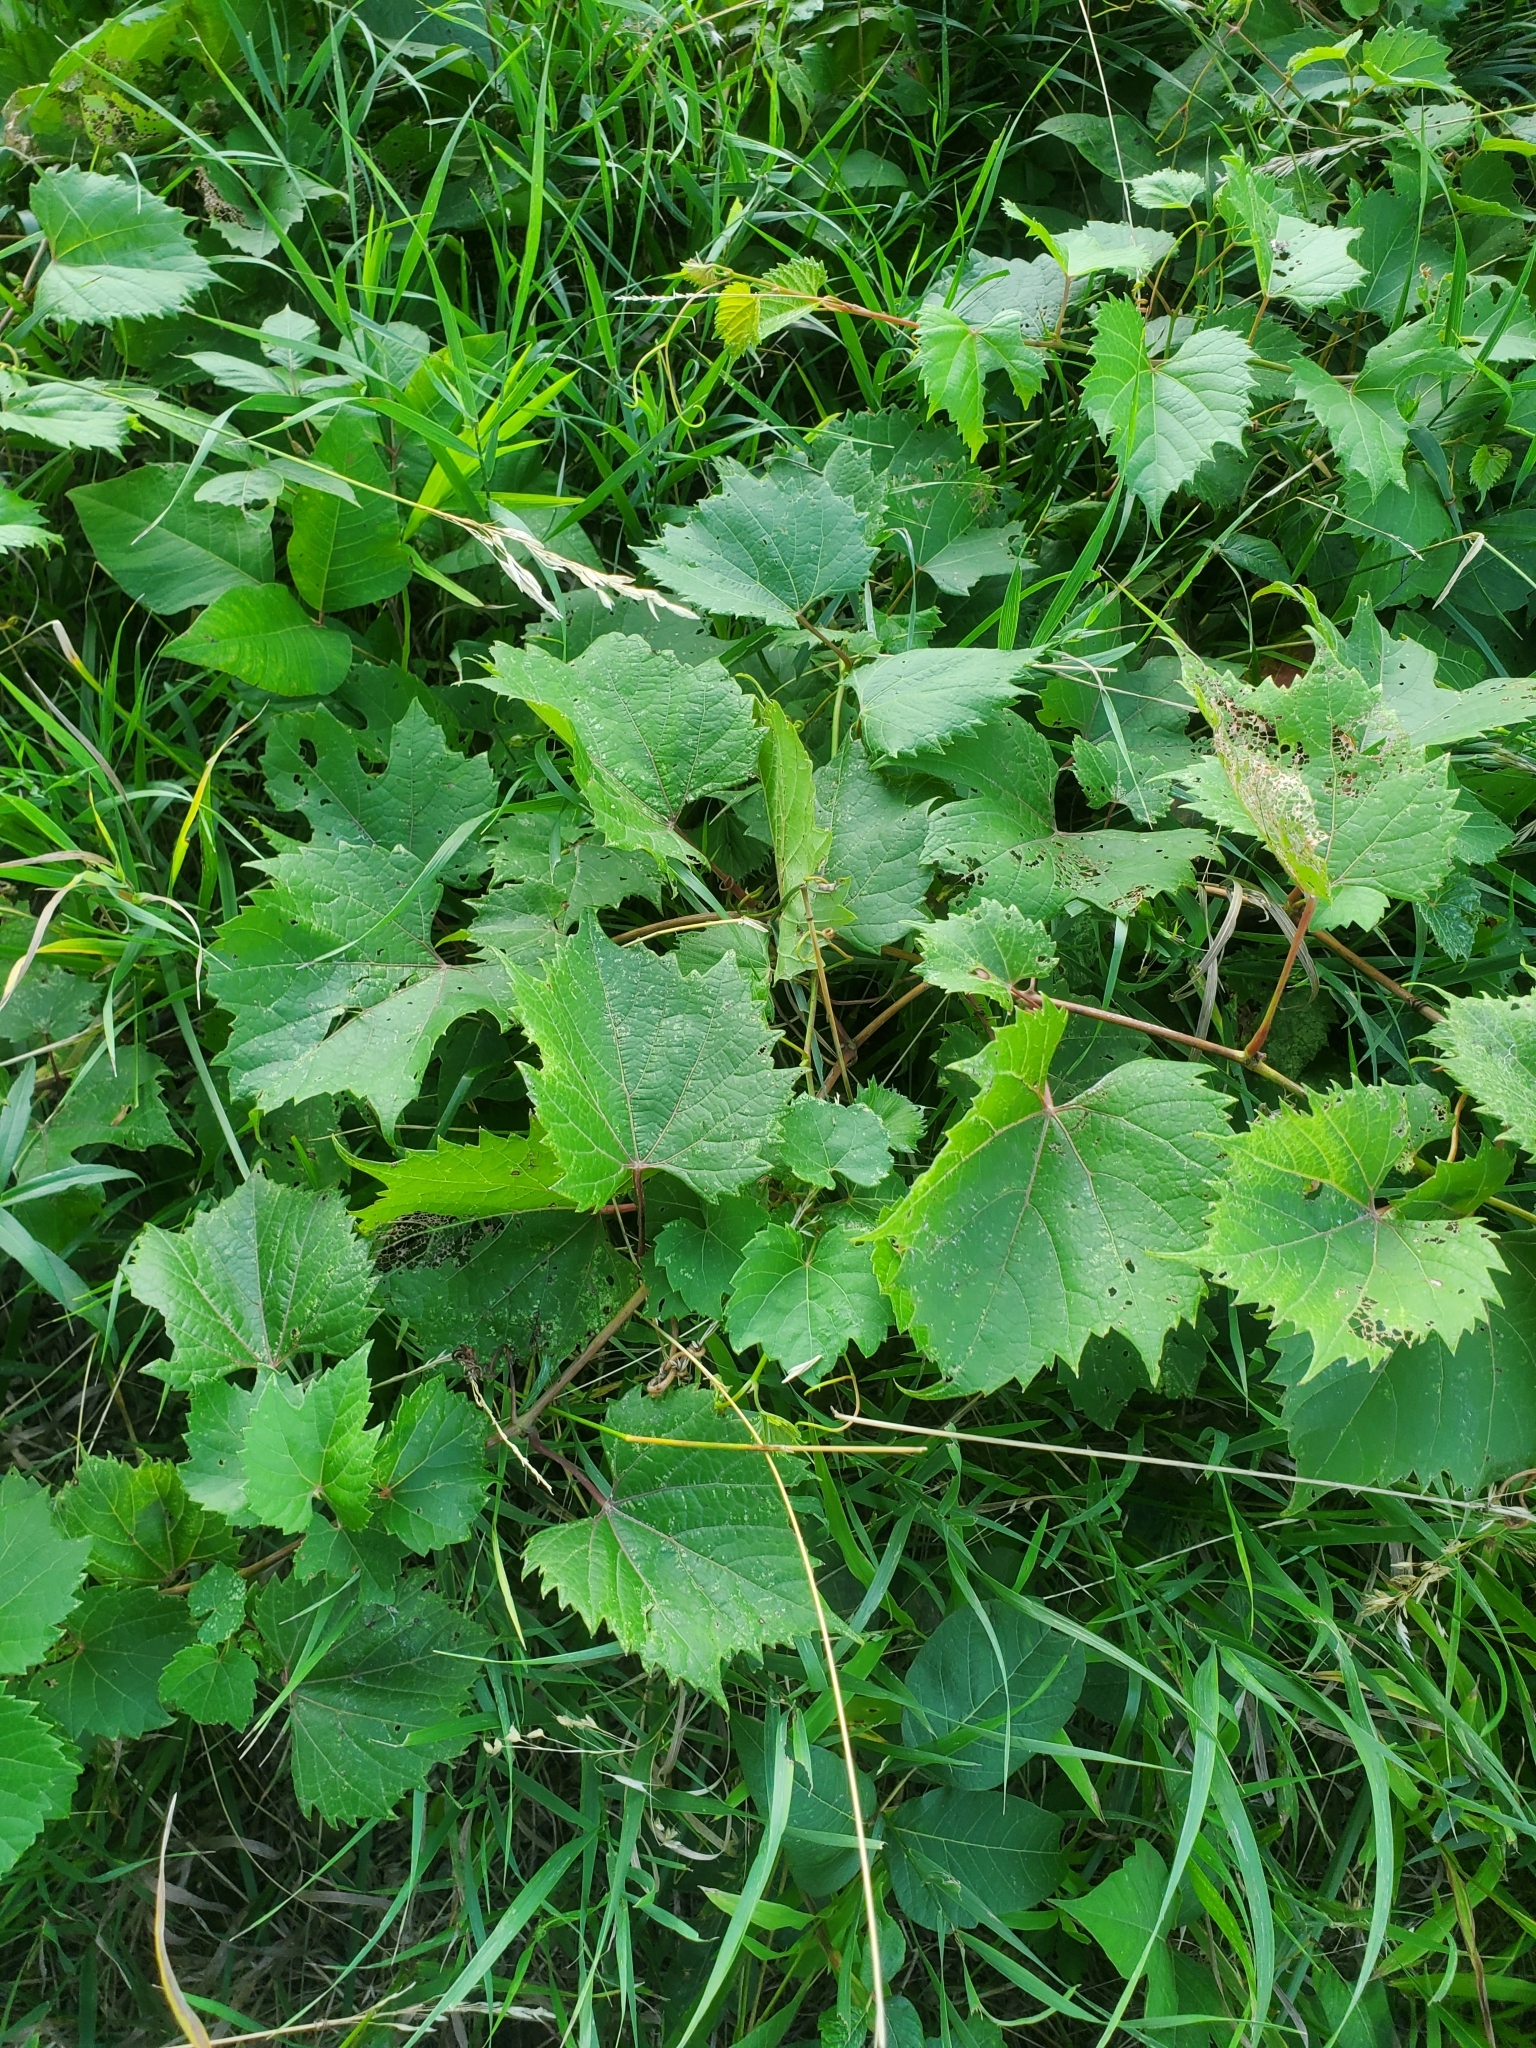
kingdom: Plantae
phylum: Tracheophyta
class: Magnoliopsida
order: Vitales
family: Vitaceae
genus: Vitis
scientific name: Vitis riparia
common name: Frost grape
